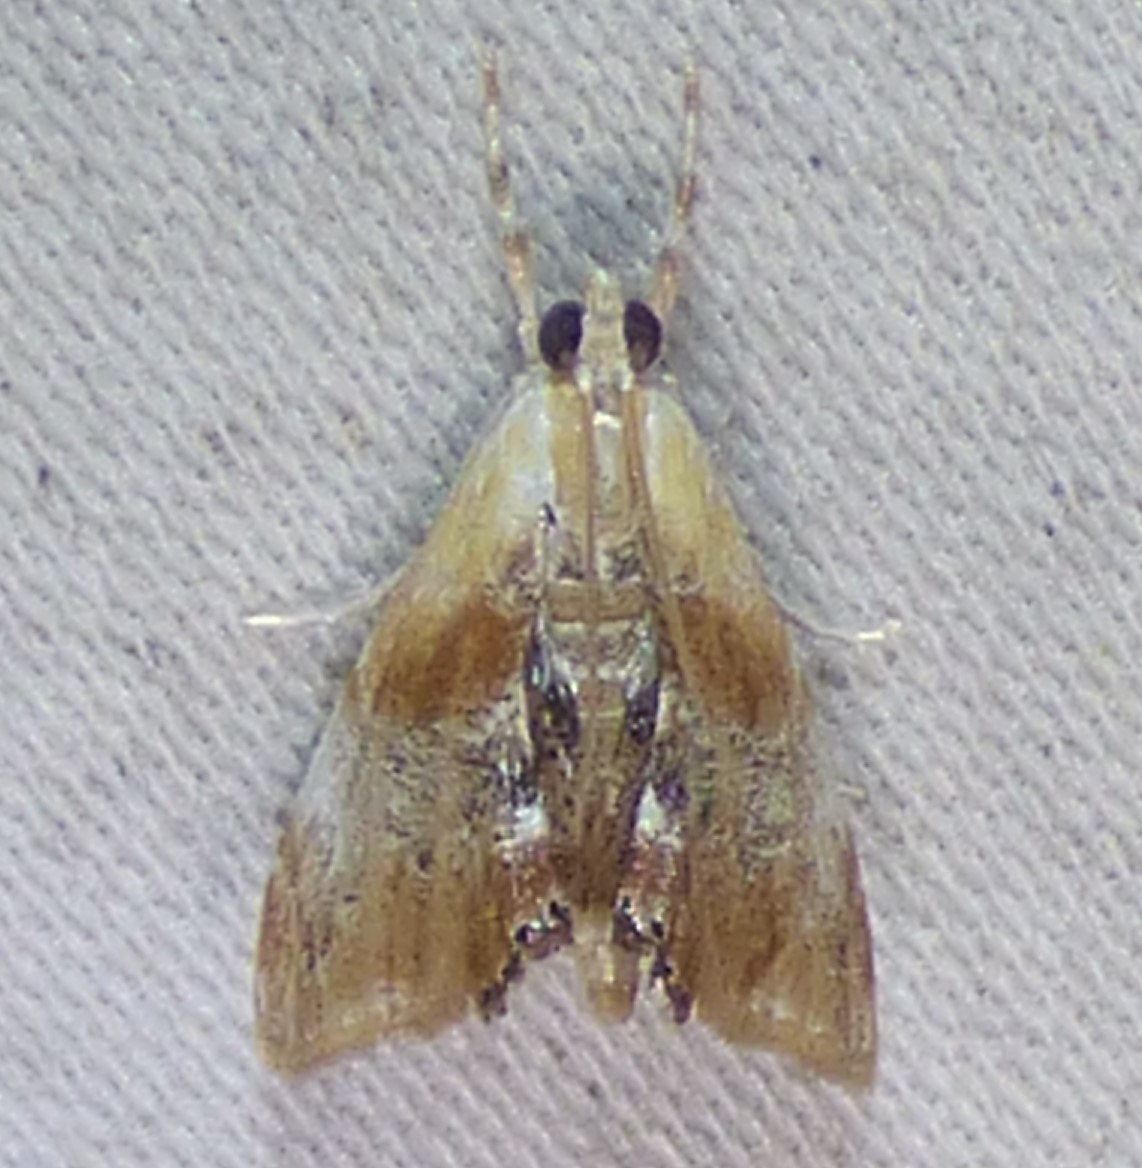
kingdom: Animalia
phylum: Arthropoda
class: Insecta
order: Lepidoptera
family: Crambidae
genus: Dicymolomia
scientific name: Dicymolomia julianalis
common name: Julia's dicymolomia moth
